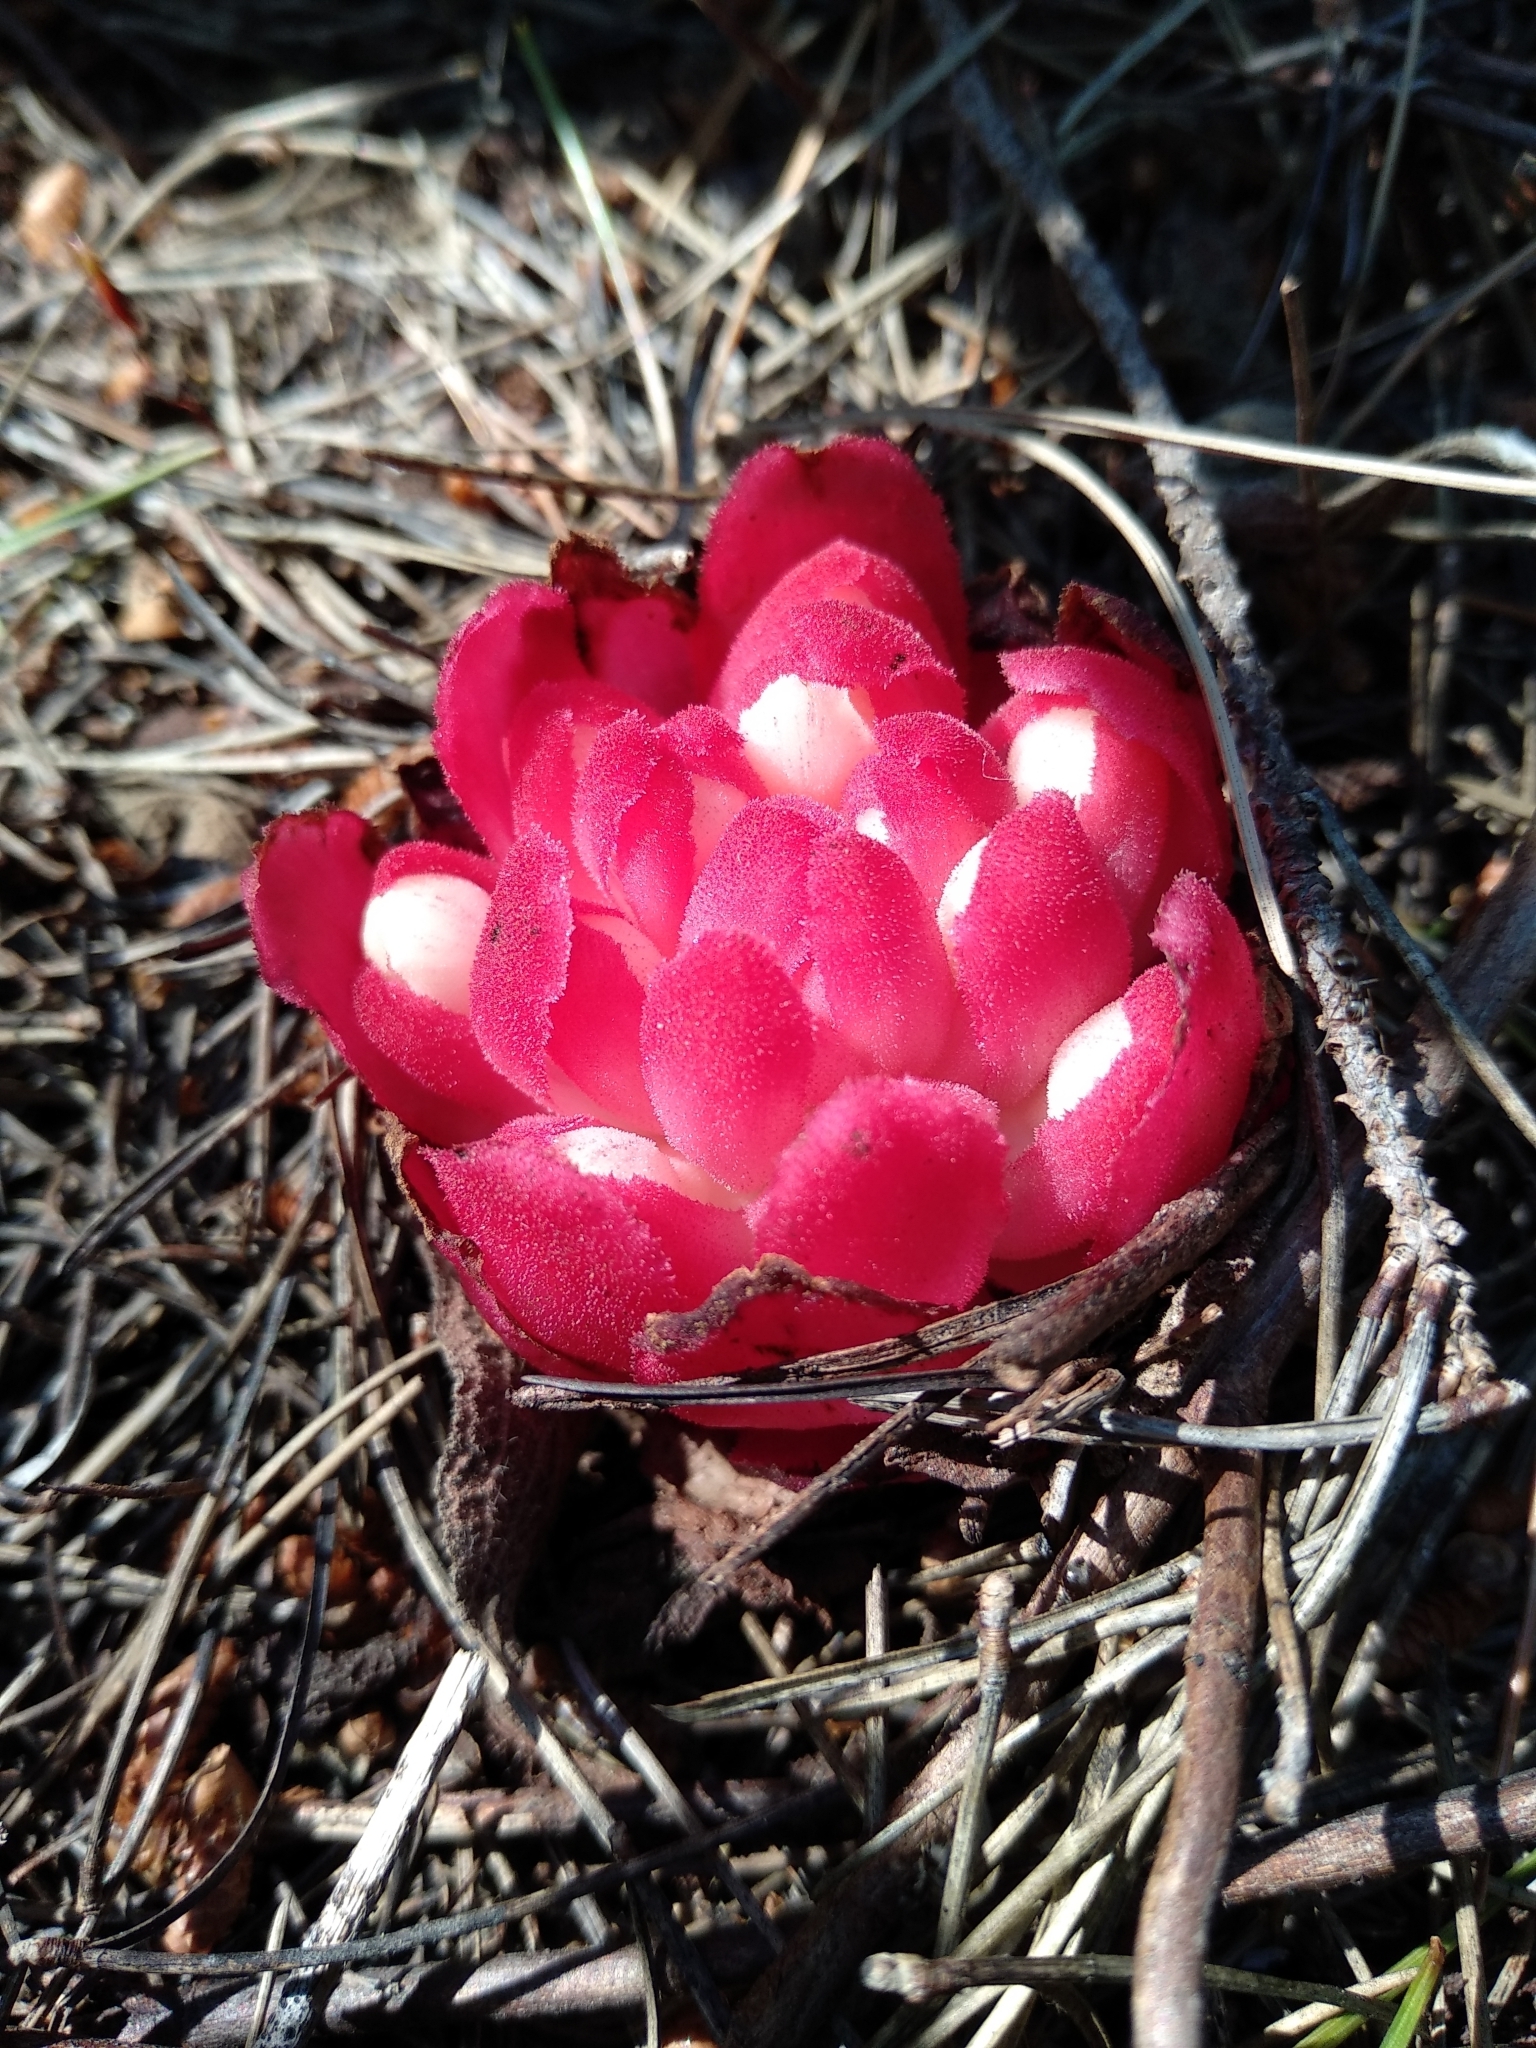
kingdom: Plantae
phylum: Tracheophyta
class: Magnoliopsida
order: Malvales
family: Cytinaceae
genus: Cytinus
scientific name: Cytinus ruber
